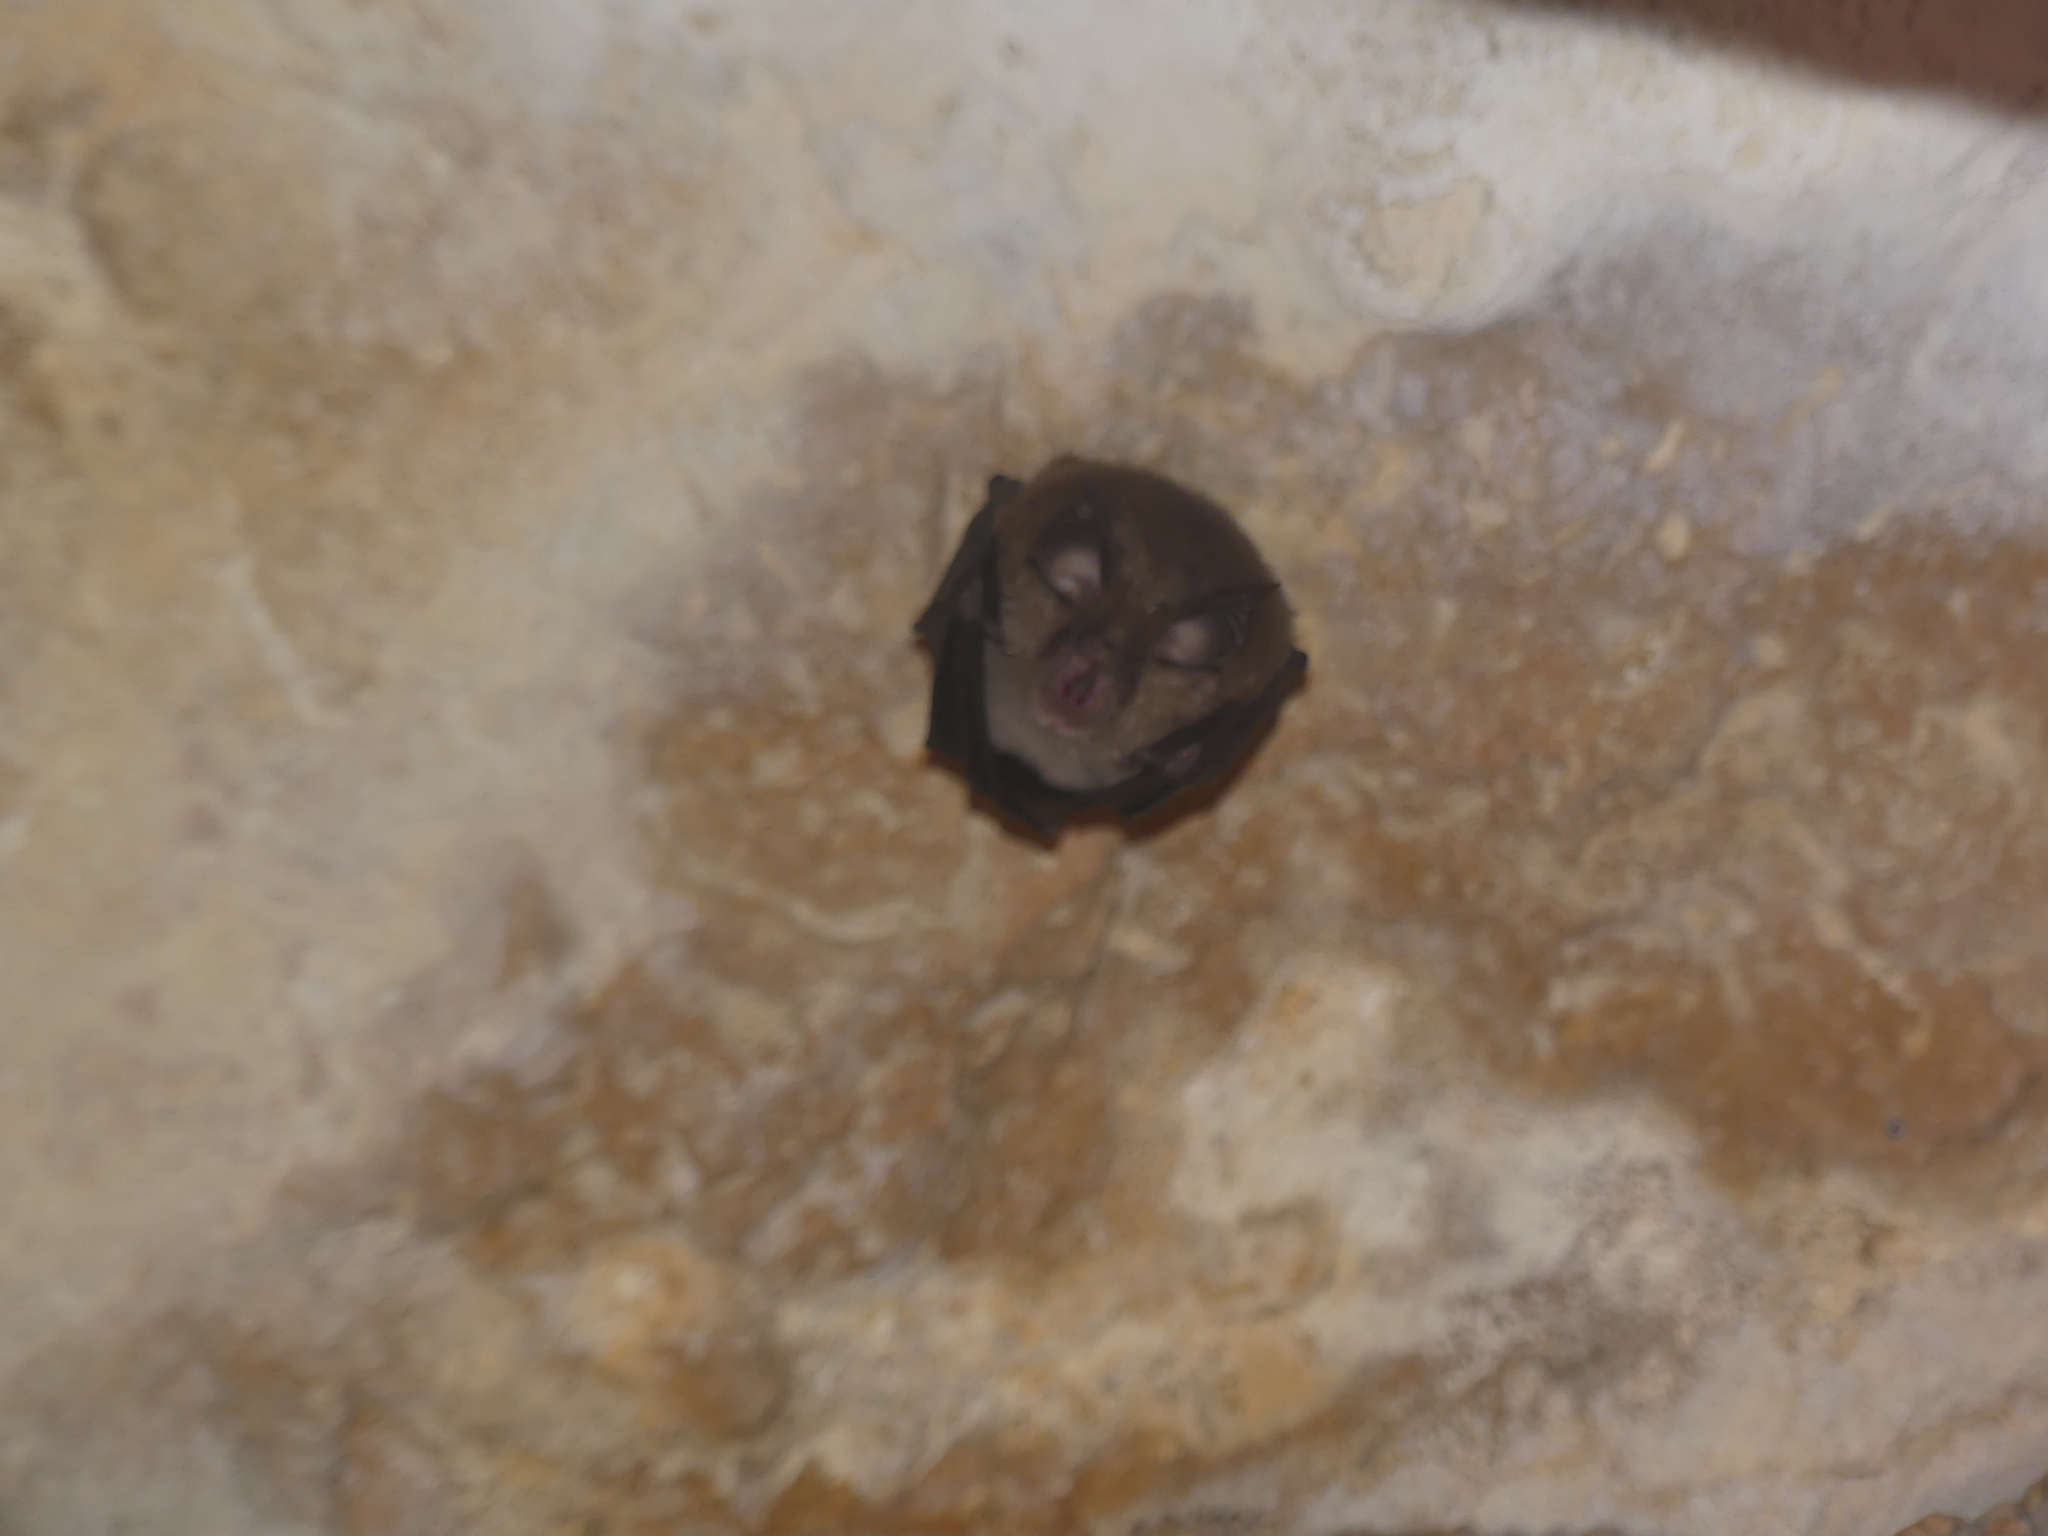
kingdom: Animalia
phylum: Chordata
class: Mammalia
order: Chiroptera
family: Rhinolophidae
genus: Rhinolophus
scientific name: Rhinolophus hipposideros
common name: Lesser horseshoe bat
